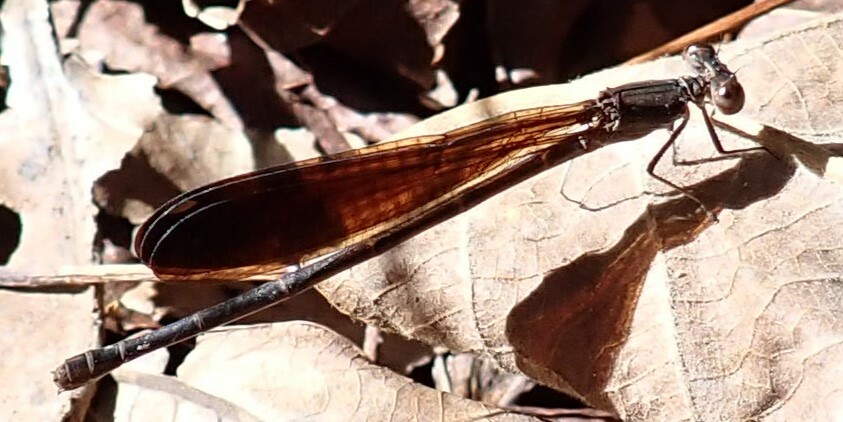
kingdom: Animalia
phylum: Arthropoda
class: Insecta
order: Odonata
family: Coenagrionidae
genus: Argia
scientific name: Argia fumipennis
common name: Variable dancer
